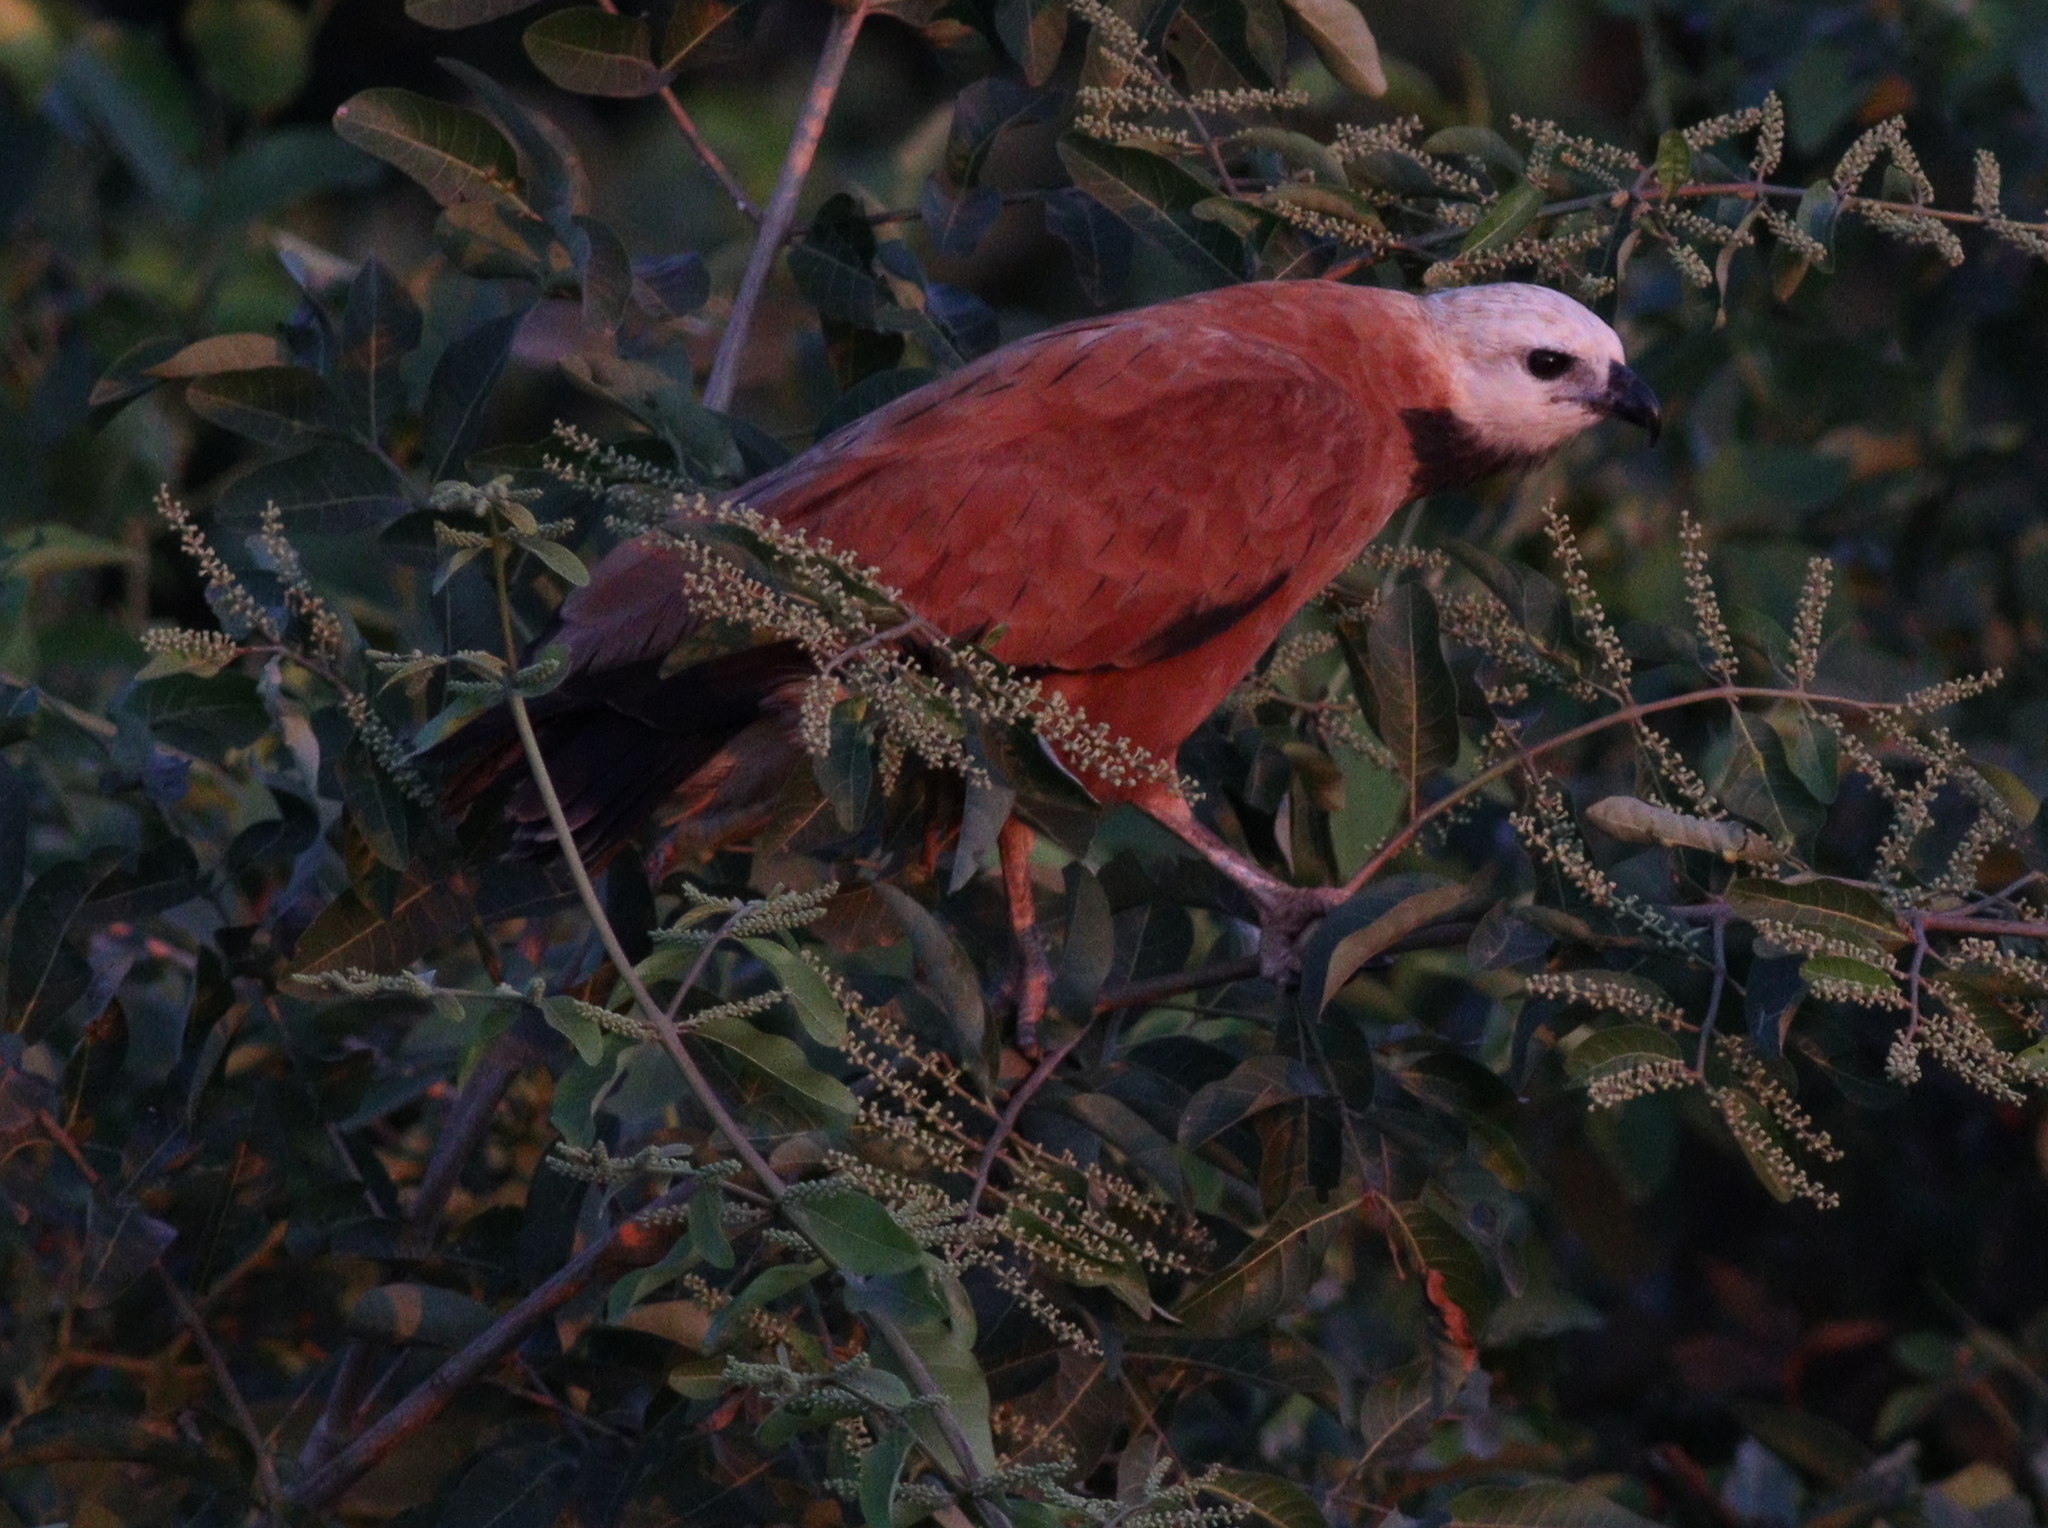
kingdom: Animalia
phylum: Chordata
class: Aves
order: Accipitriformes
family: Accipitridae
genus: Busarellus
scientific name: Busarellus nigricollis
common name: Black-collared hawk
